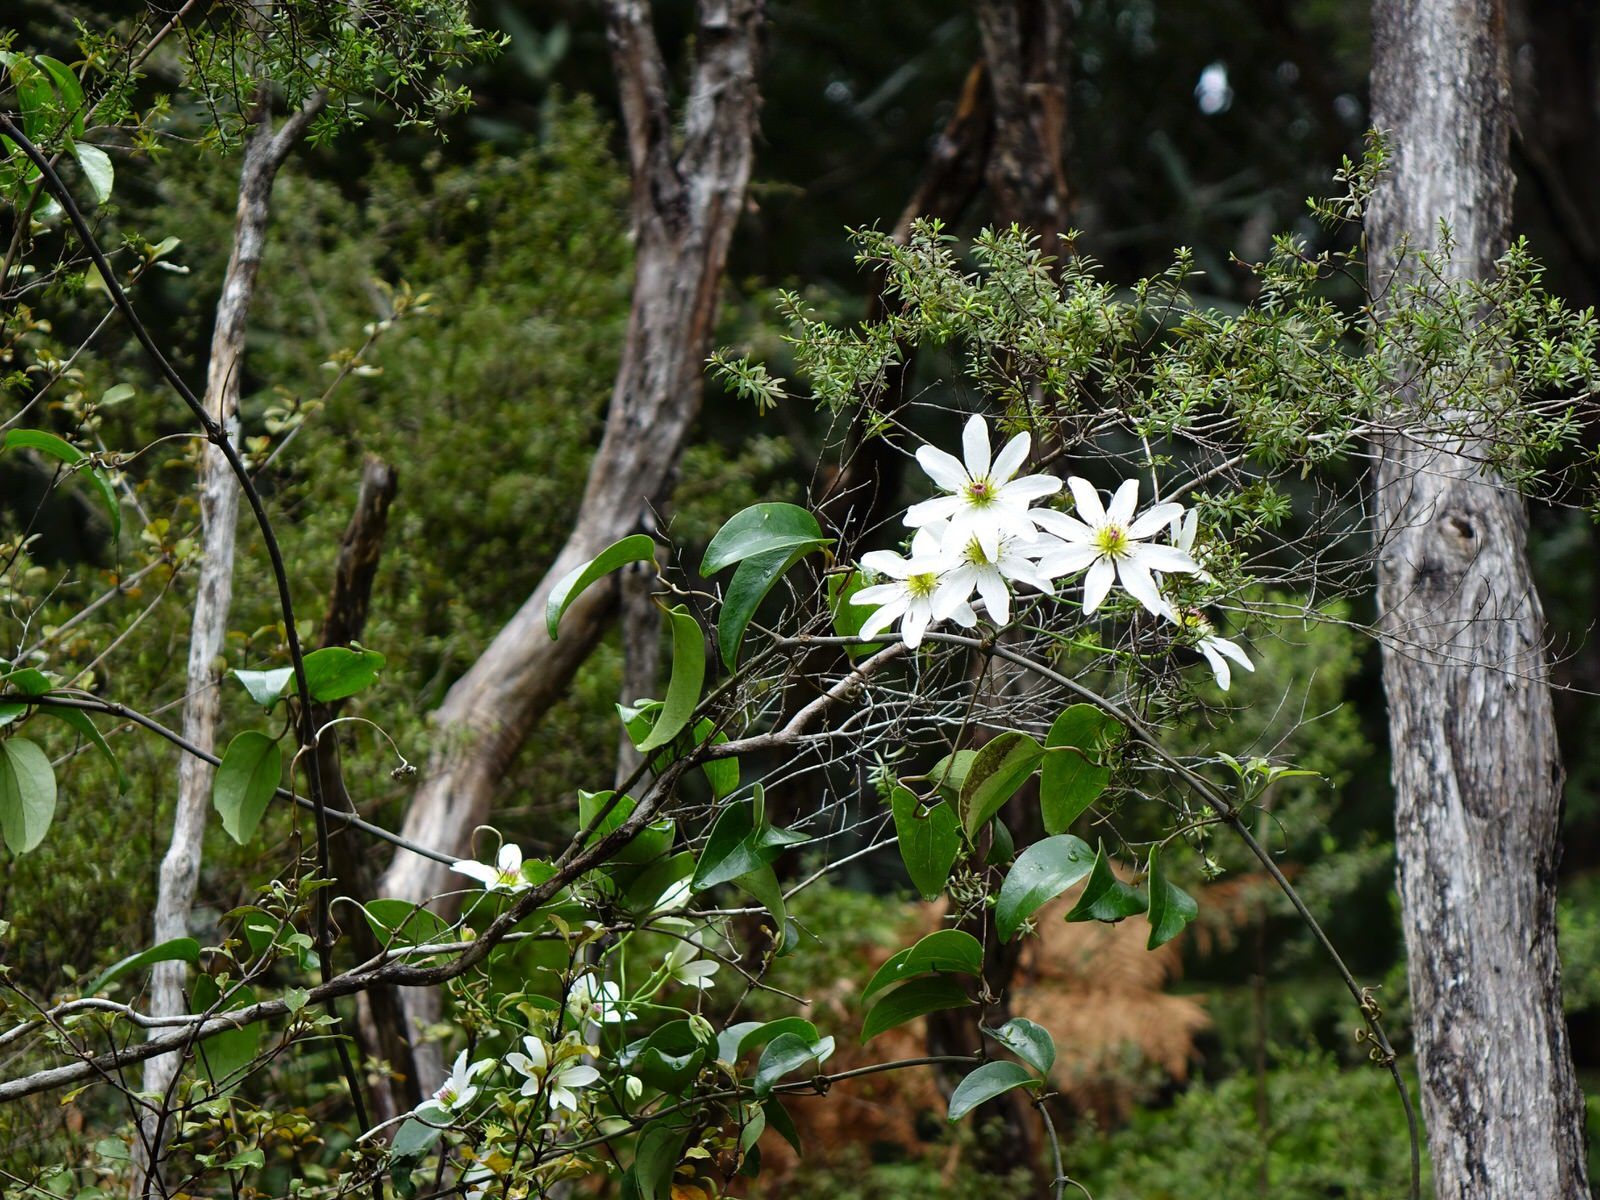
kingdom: Plantae
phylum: Tracheophyta
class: Magnoliopsida
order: Ranunculales
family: Ranunculaceae
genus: Clematis
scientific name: Clematis paniculata
